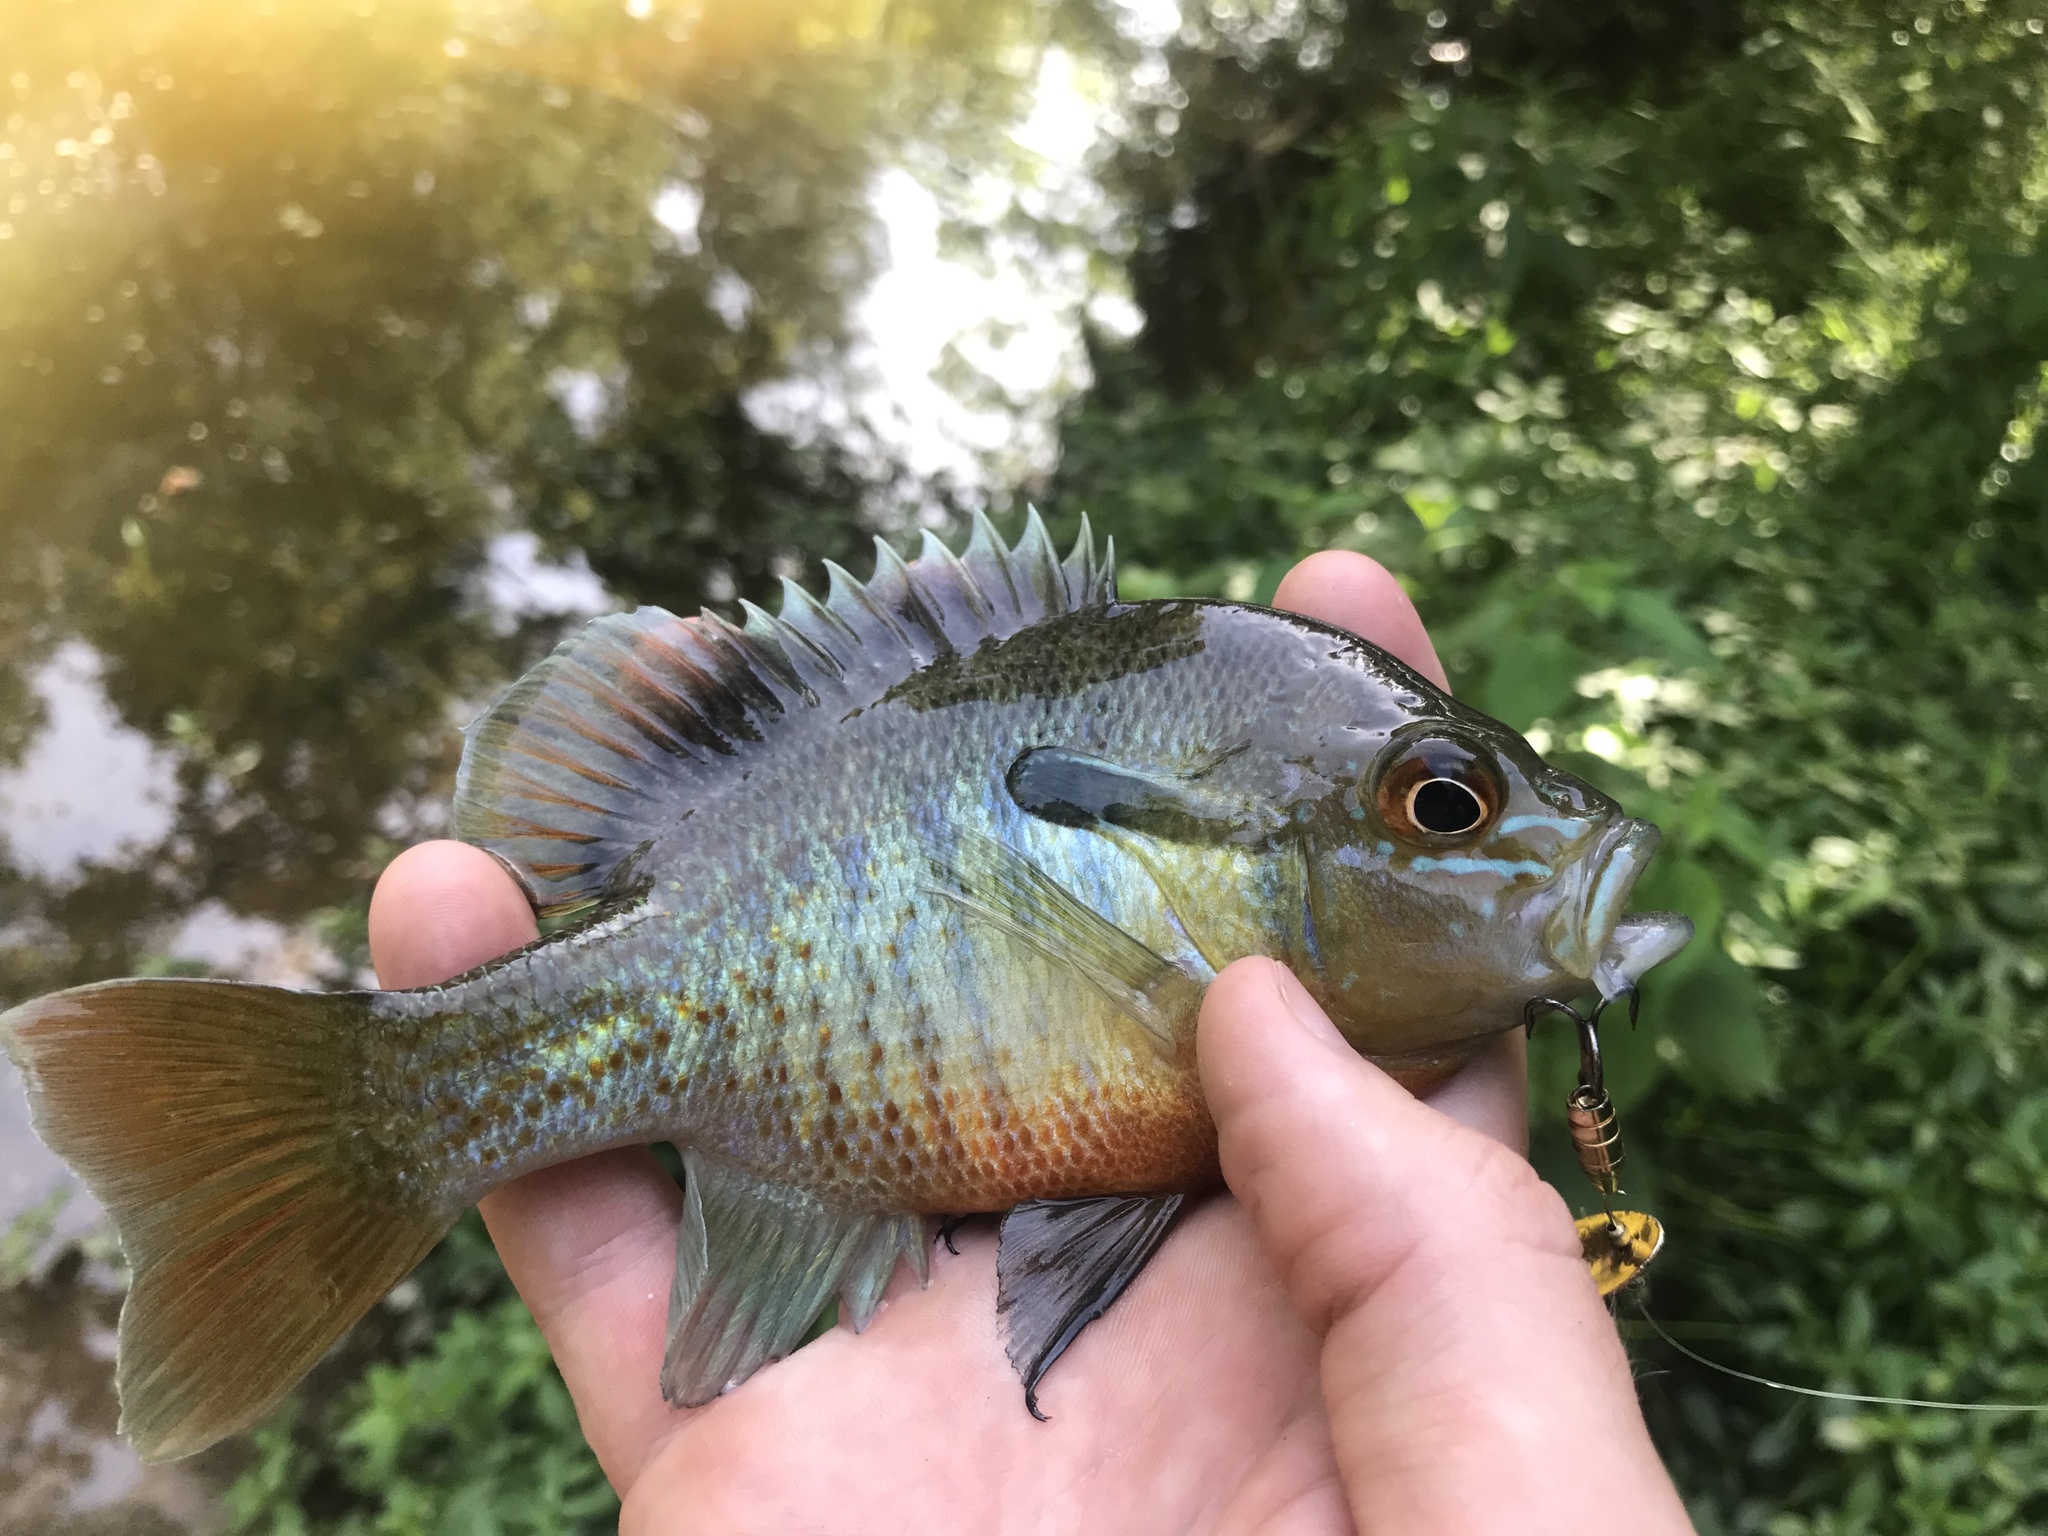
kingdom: Animalia
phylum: Chordata
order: Perciformes
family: Centrarchidae
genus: Lepomis
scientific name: Lepomis auritus
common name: Redbreast sunfish
